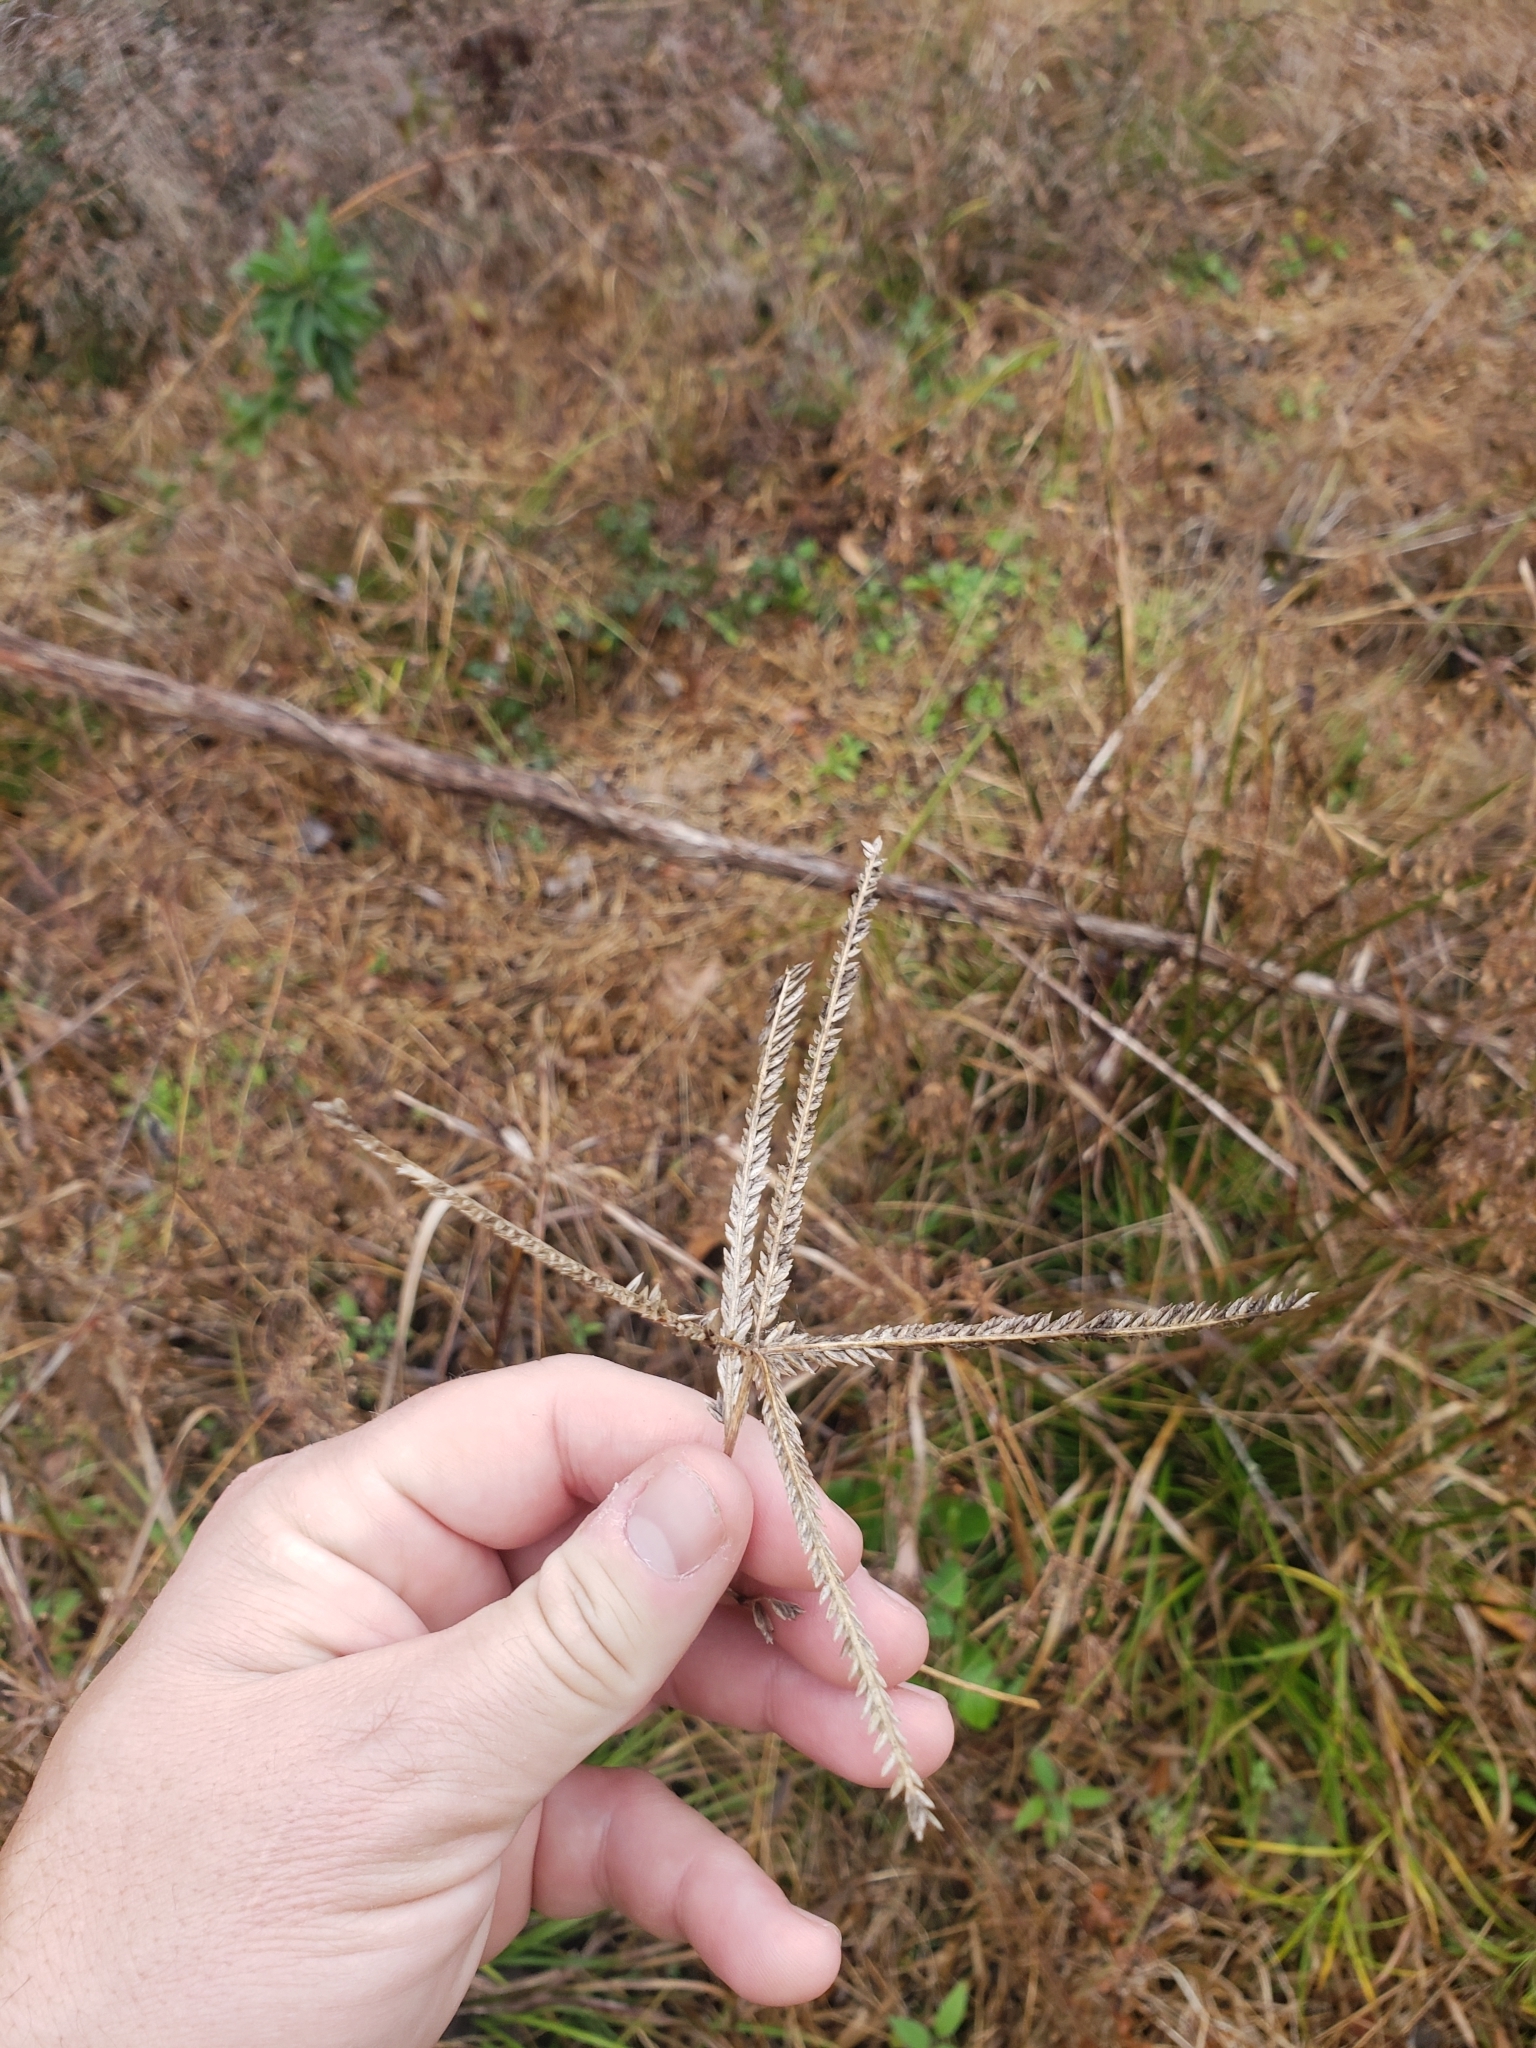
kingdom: Plantae
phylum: Tracheophyta
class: Liliopsida
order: Poales
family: Poaceae
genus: Eleusine
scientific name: Eleusine indica
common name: Yard-grass
